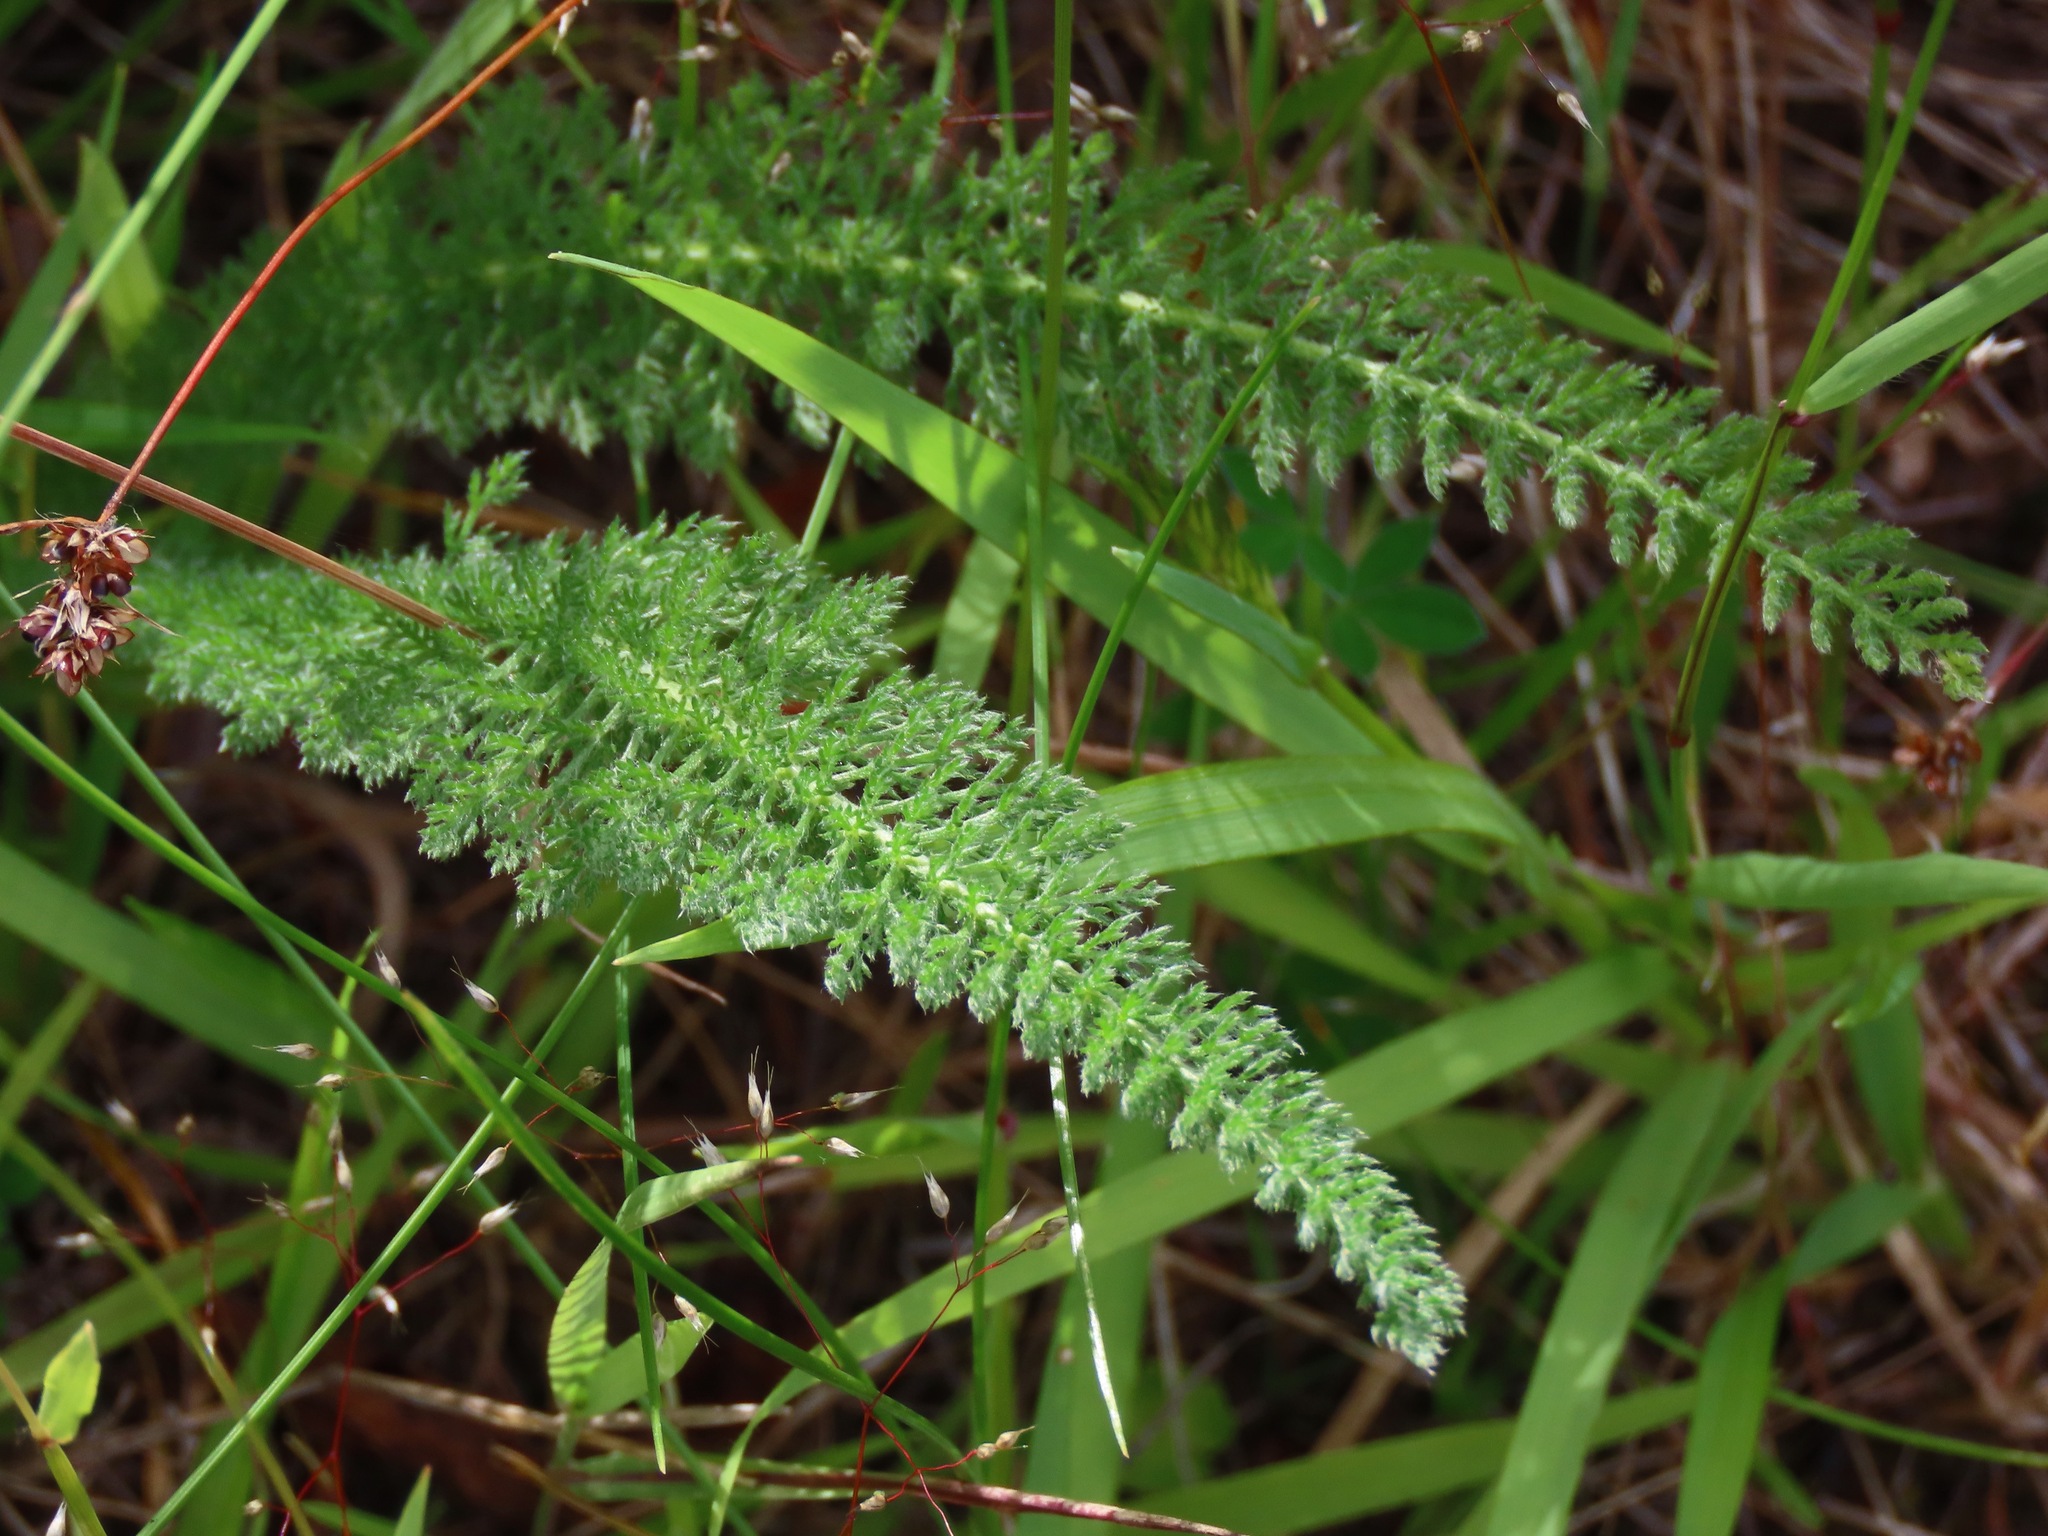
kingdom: Plantae
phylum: Tracheophyta
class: Magnoliopsida
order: Asterales
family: Asteraceae
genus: Achillea
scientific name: Achillea millefolium
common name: Yarrow
